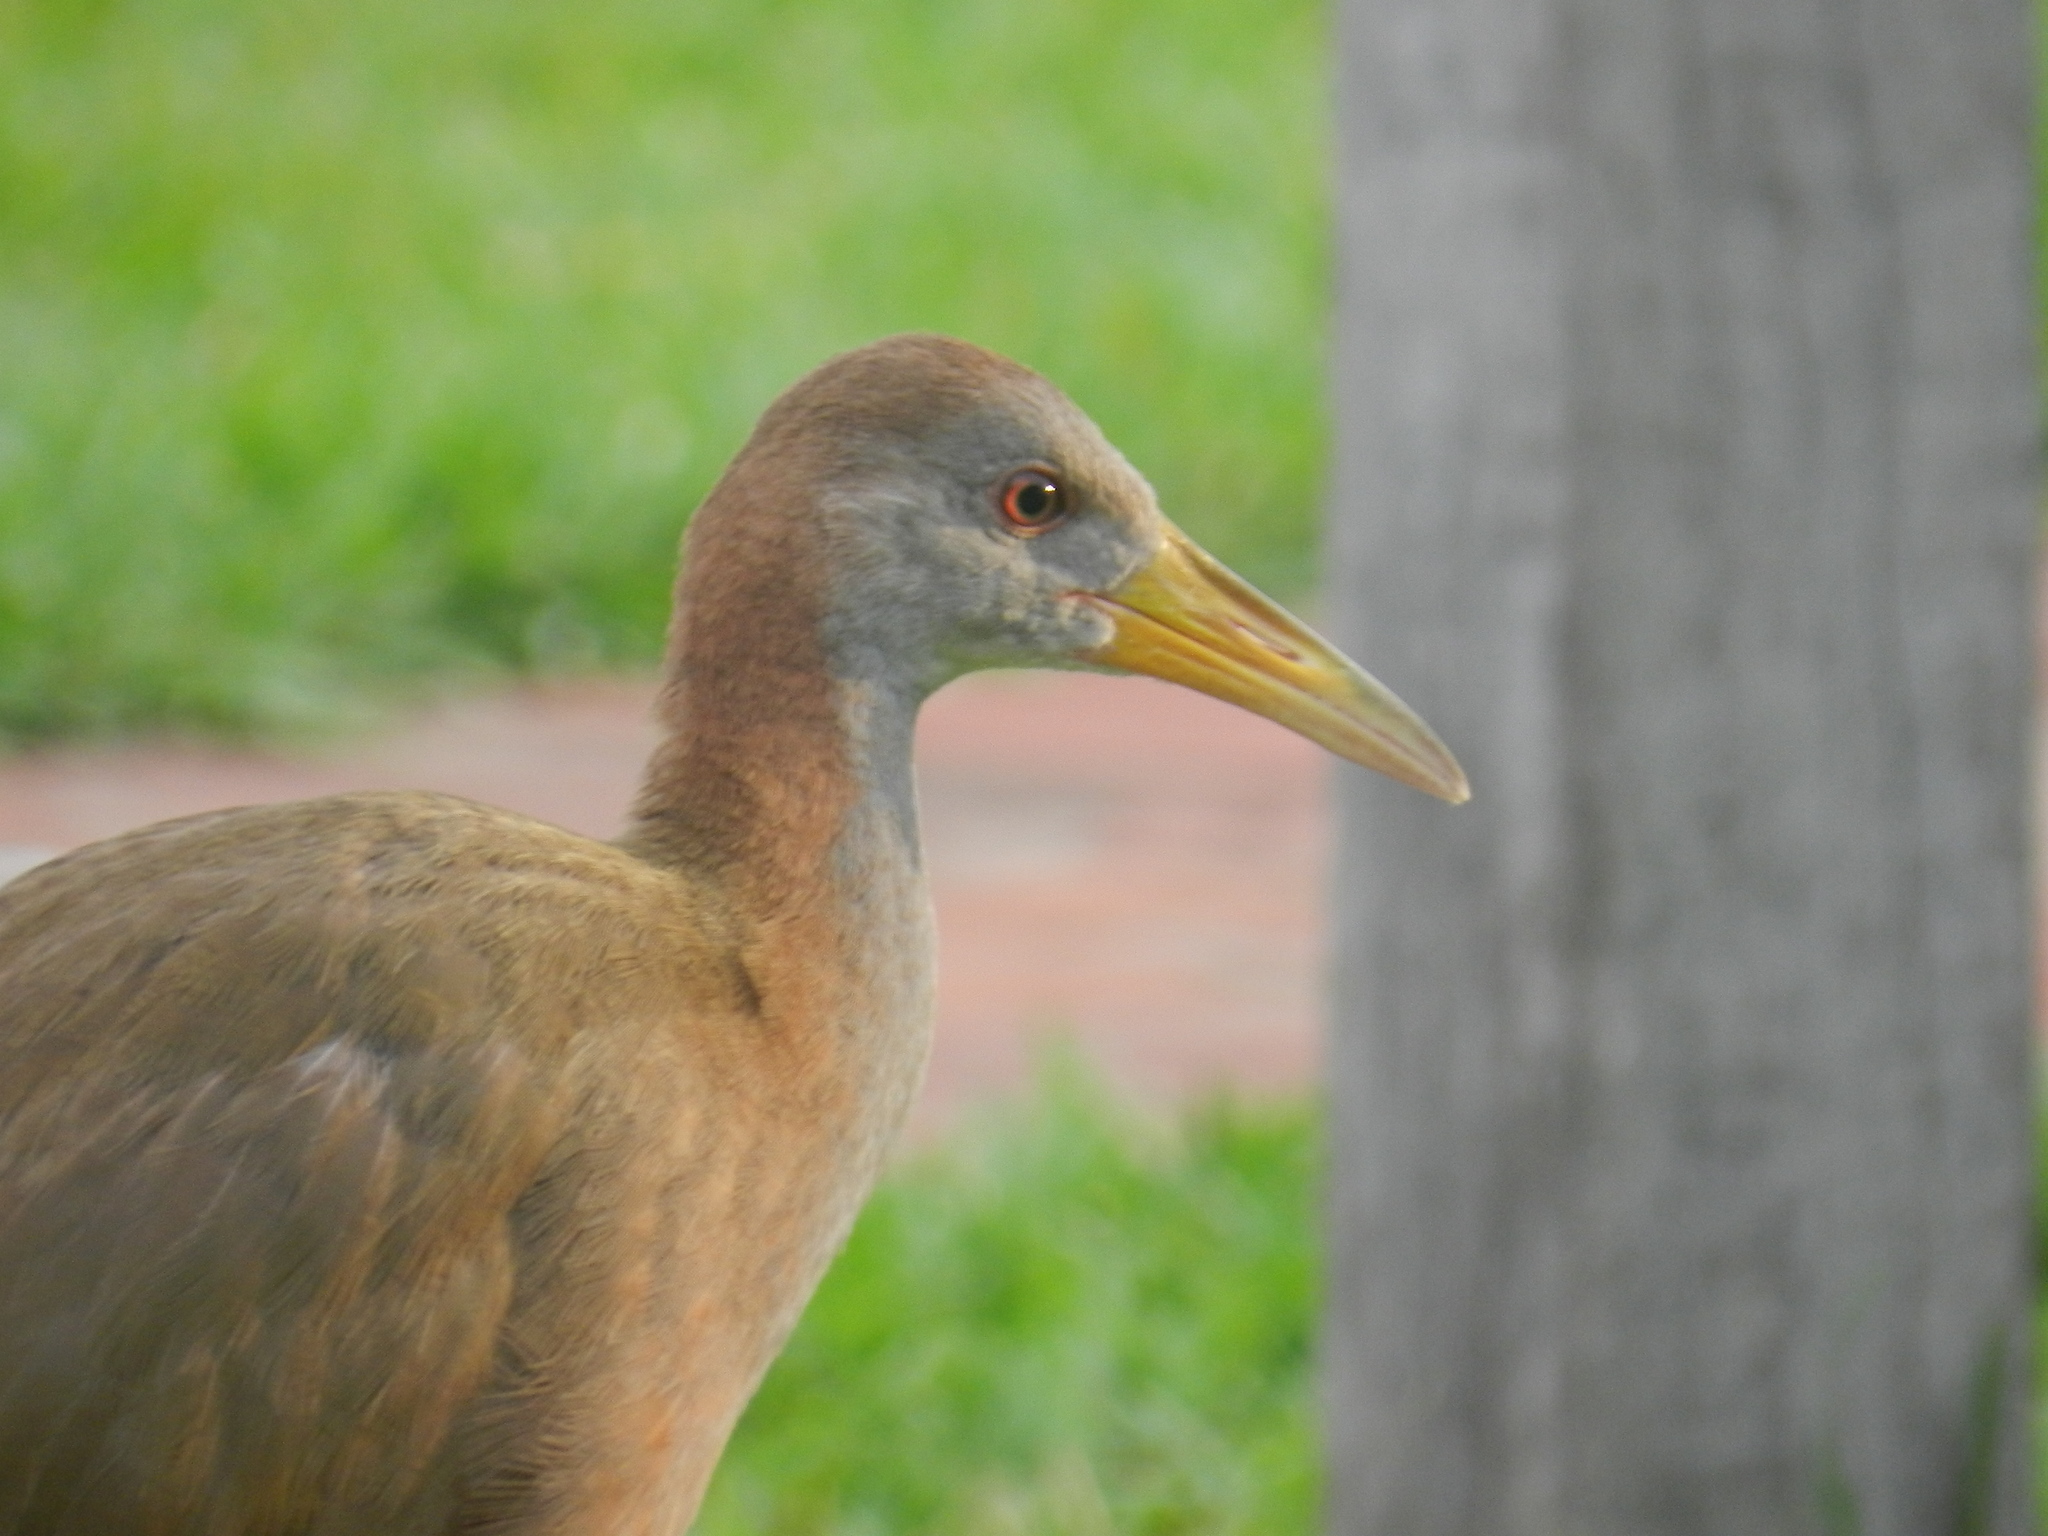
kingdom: Animalia
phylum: Chordata
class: Aves
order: Gruiformes
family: Rallidae
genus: Aramides
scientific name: Aramides ypecaha
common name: Giant wood rail
